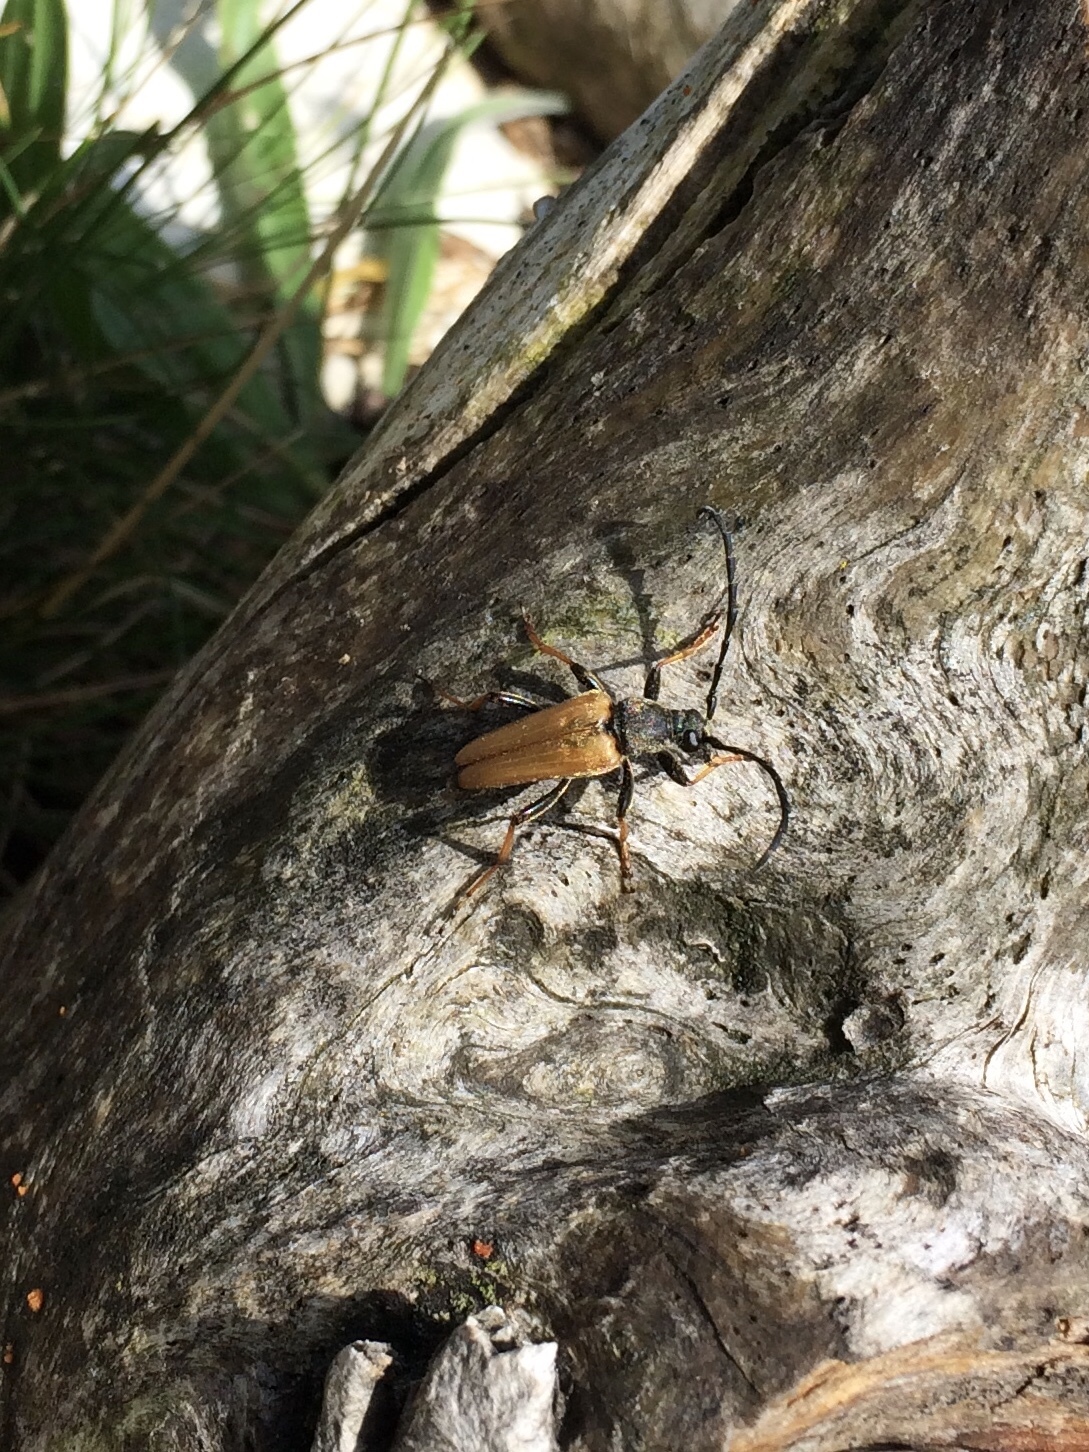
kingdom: Animalia
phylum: Arthropoda
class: Insecta
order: Coleoptera
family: Cerambycidae
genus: Stictoleptura
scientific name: Stictoleptura rubra
